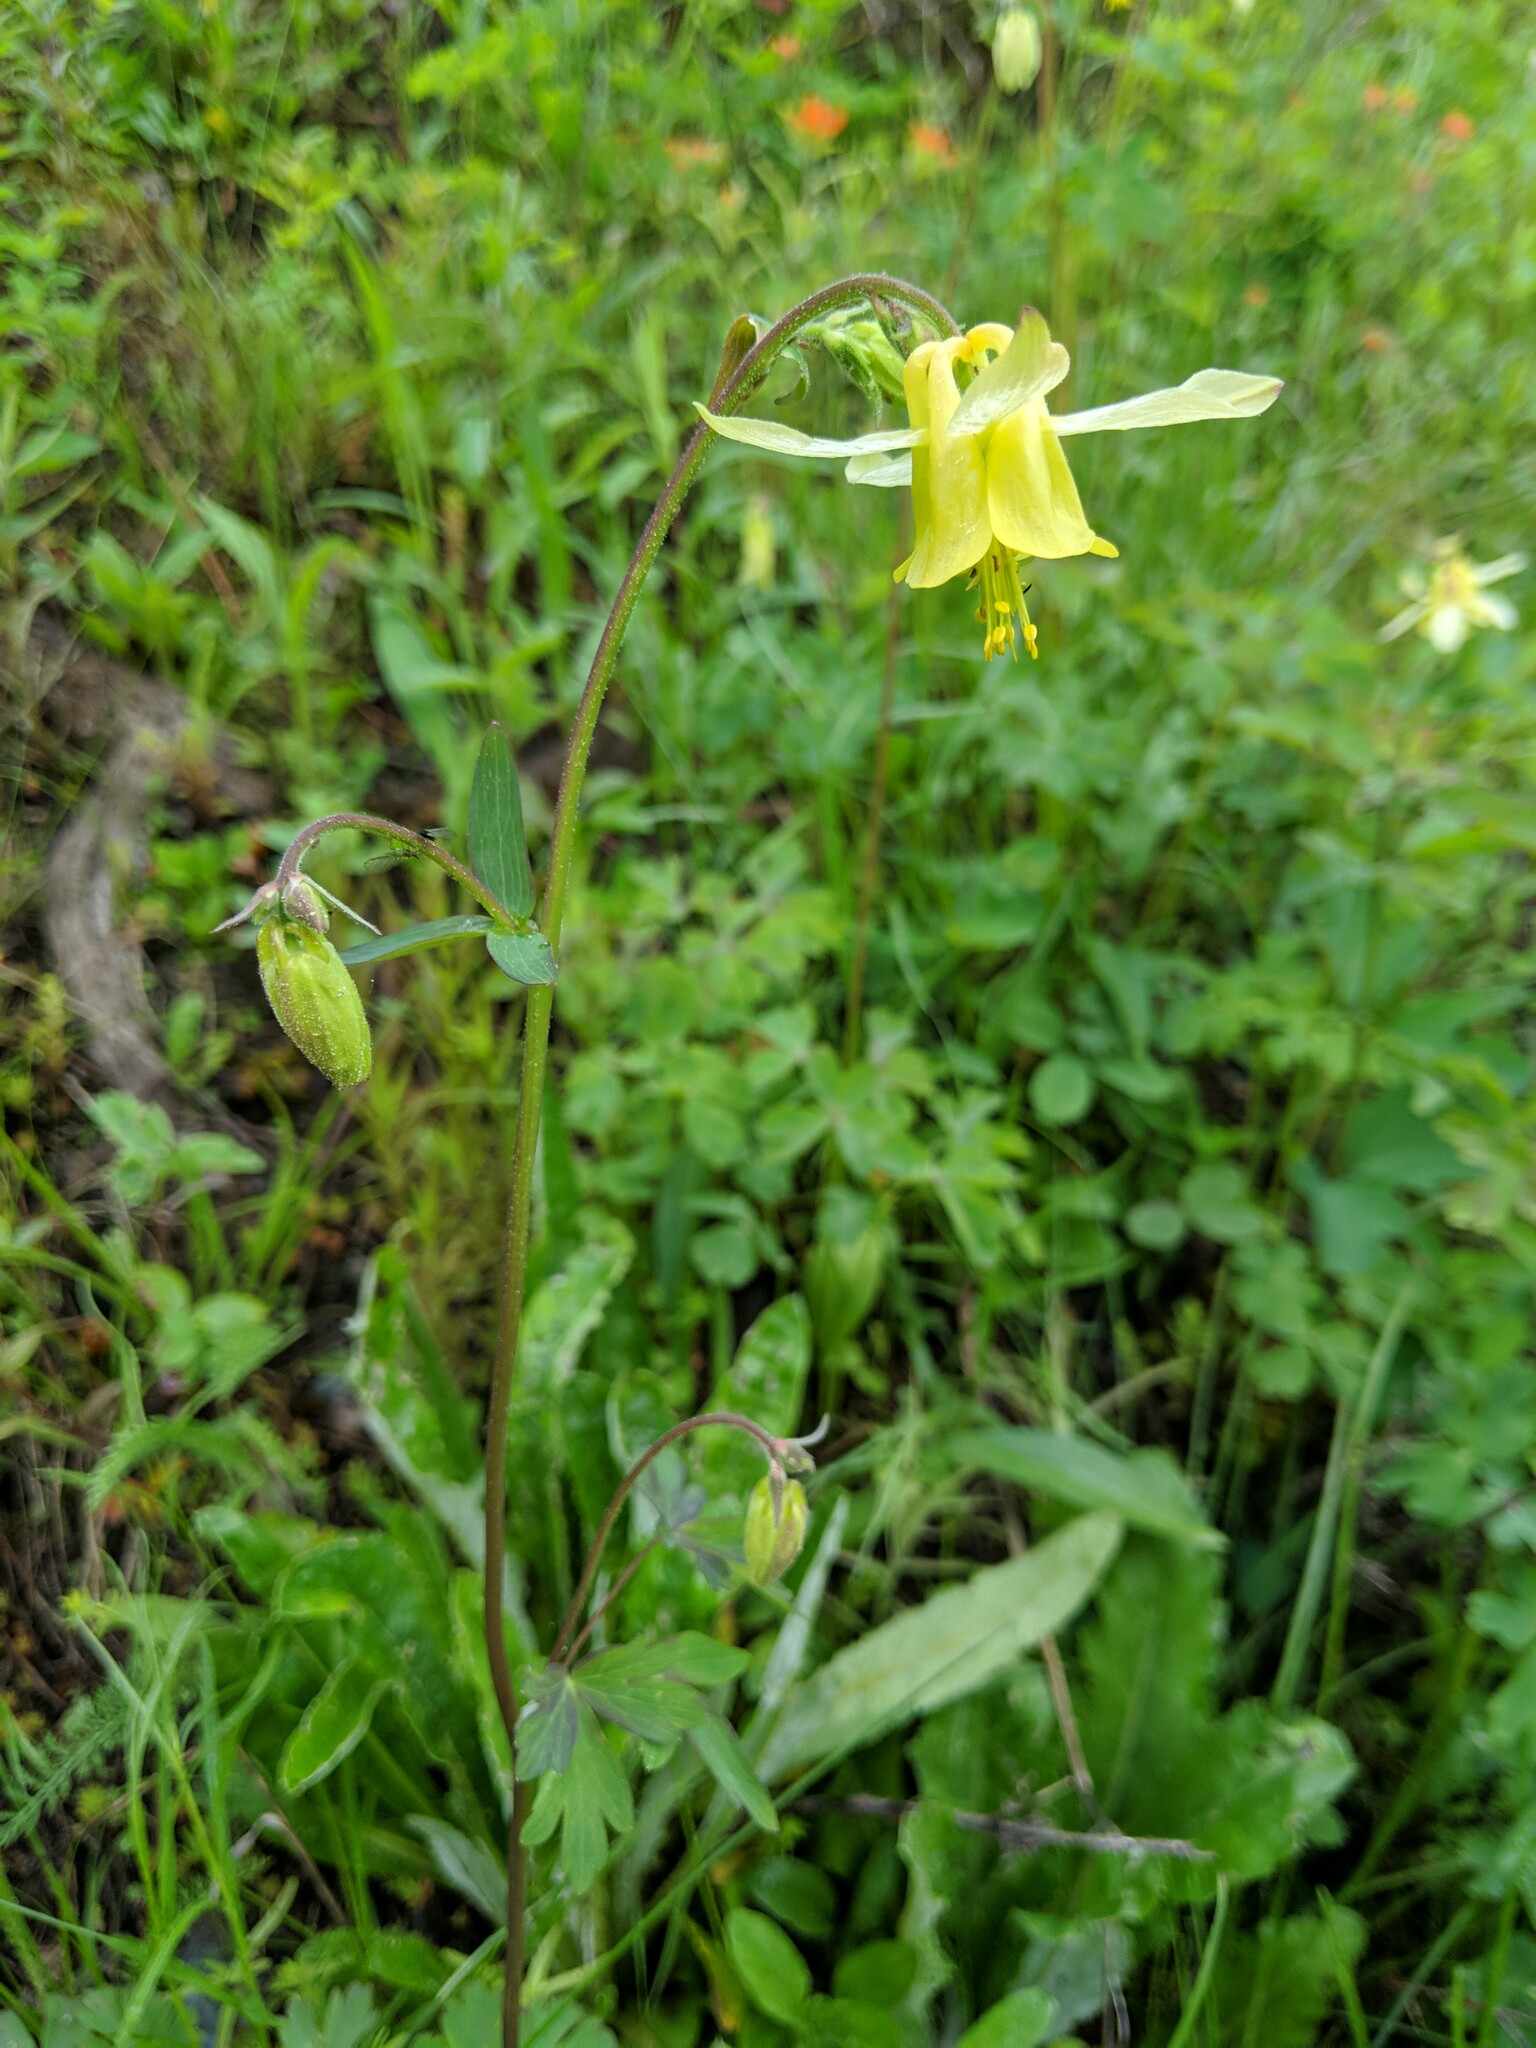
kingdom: Plantae
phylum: Tracheophyta
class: Magnoliopsida
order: Ranunculales
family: Ranunculaceae
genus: Aquilegia
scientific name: Aquilegia flavescens
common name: Yellow columbine
